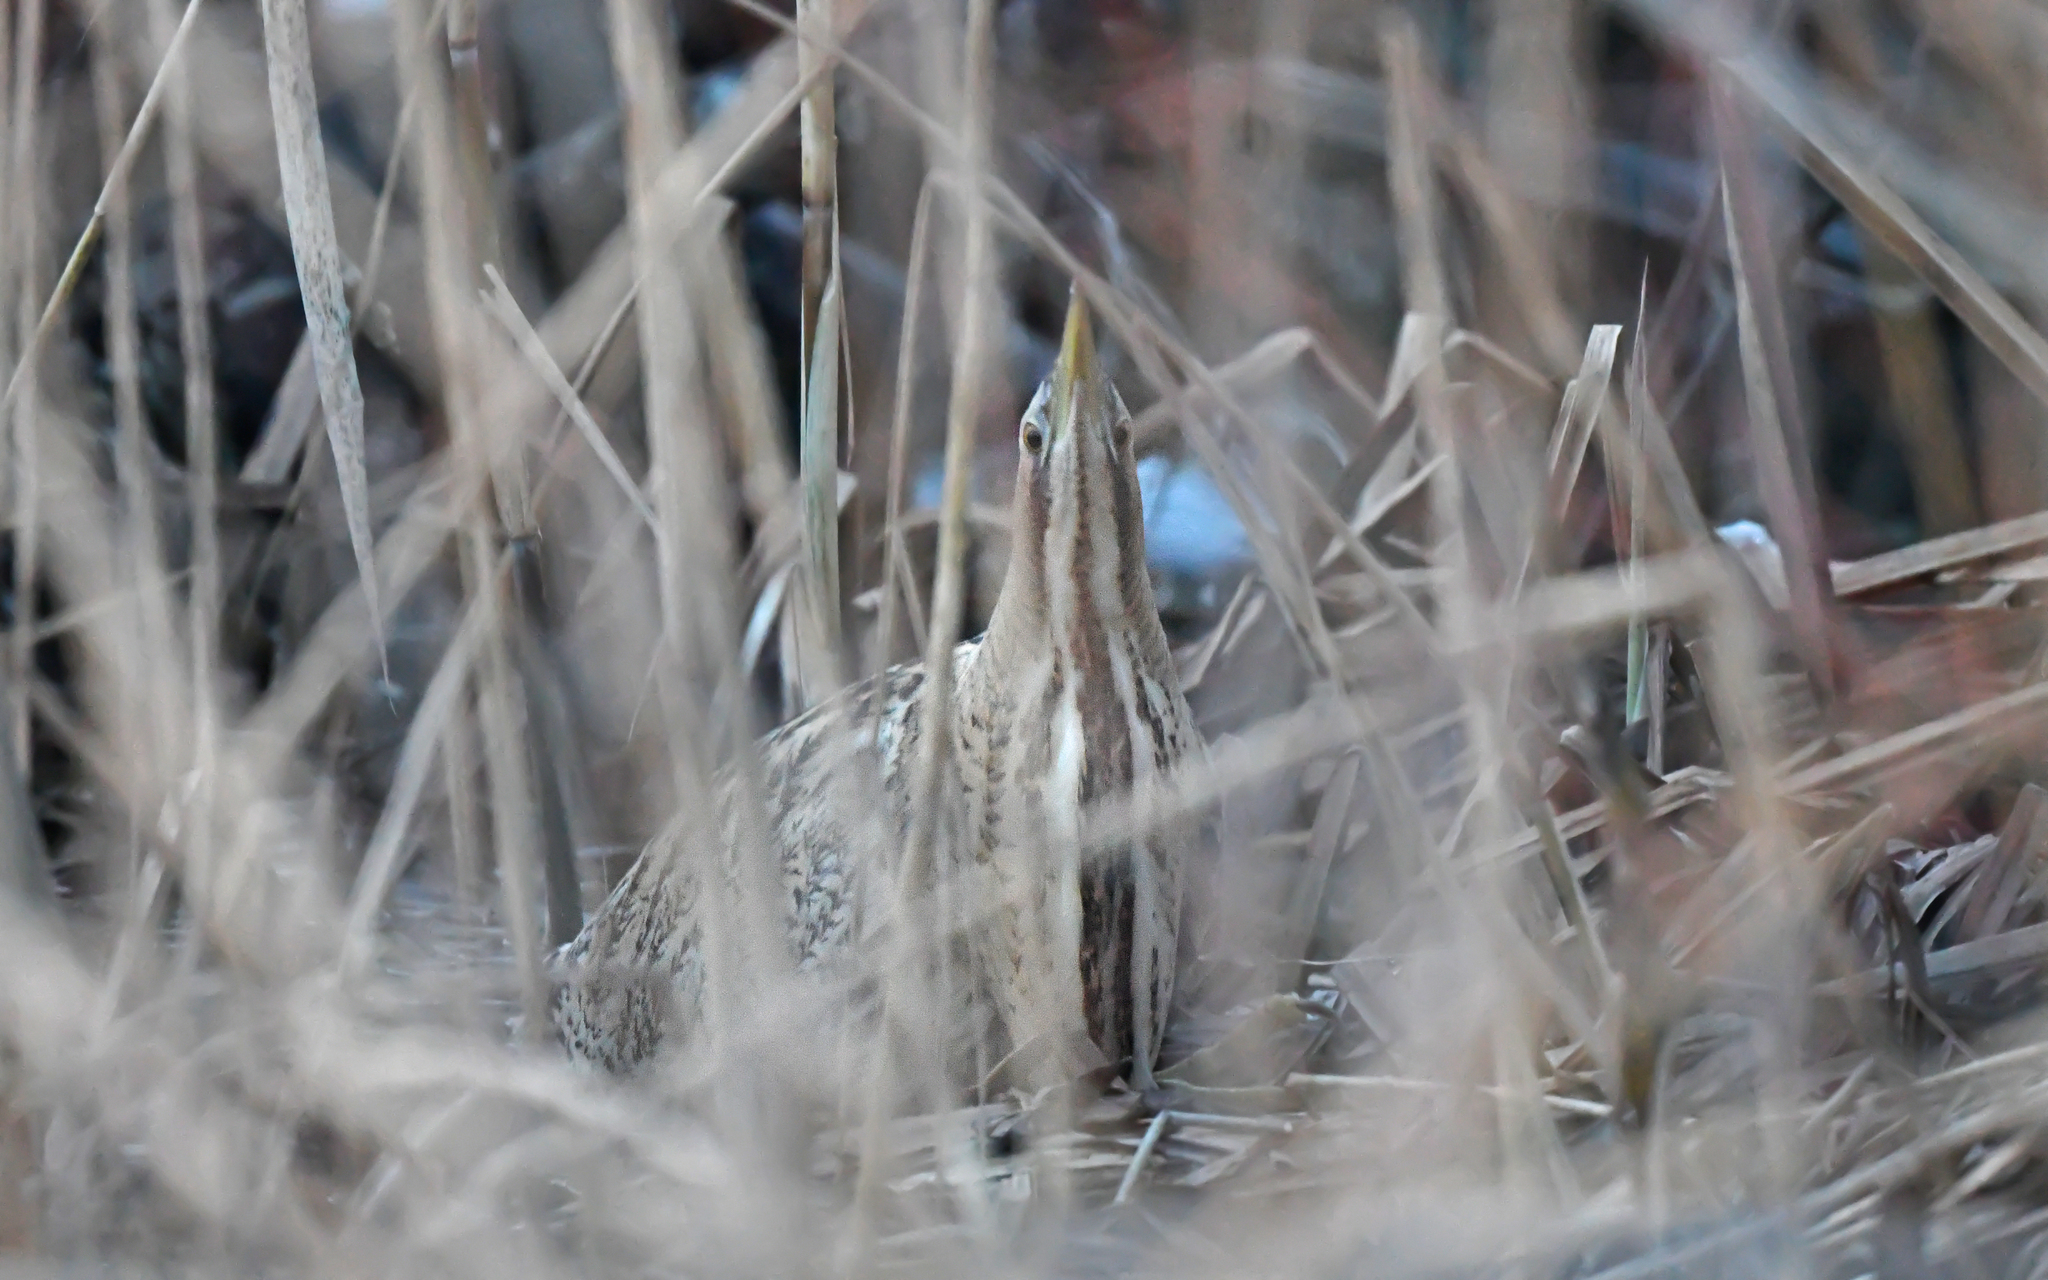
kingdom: Animalia
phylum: Chordata
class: Aves
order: Pelecaniformes
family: Ardeidae
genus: Botaurus
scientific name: Botaurus stellaris
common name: Eurasian bittern
